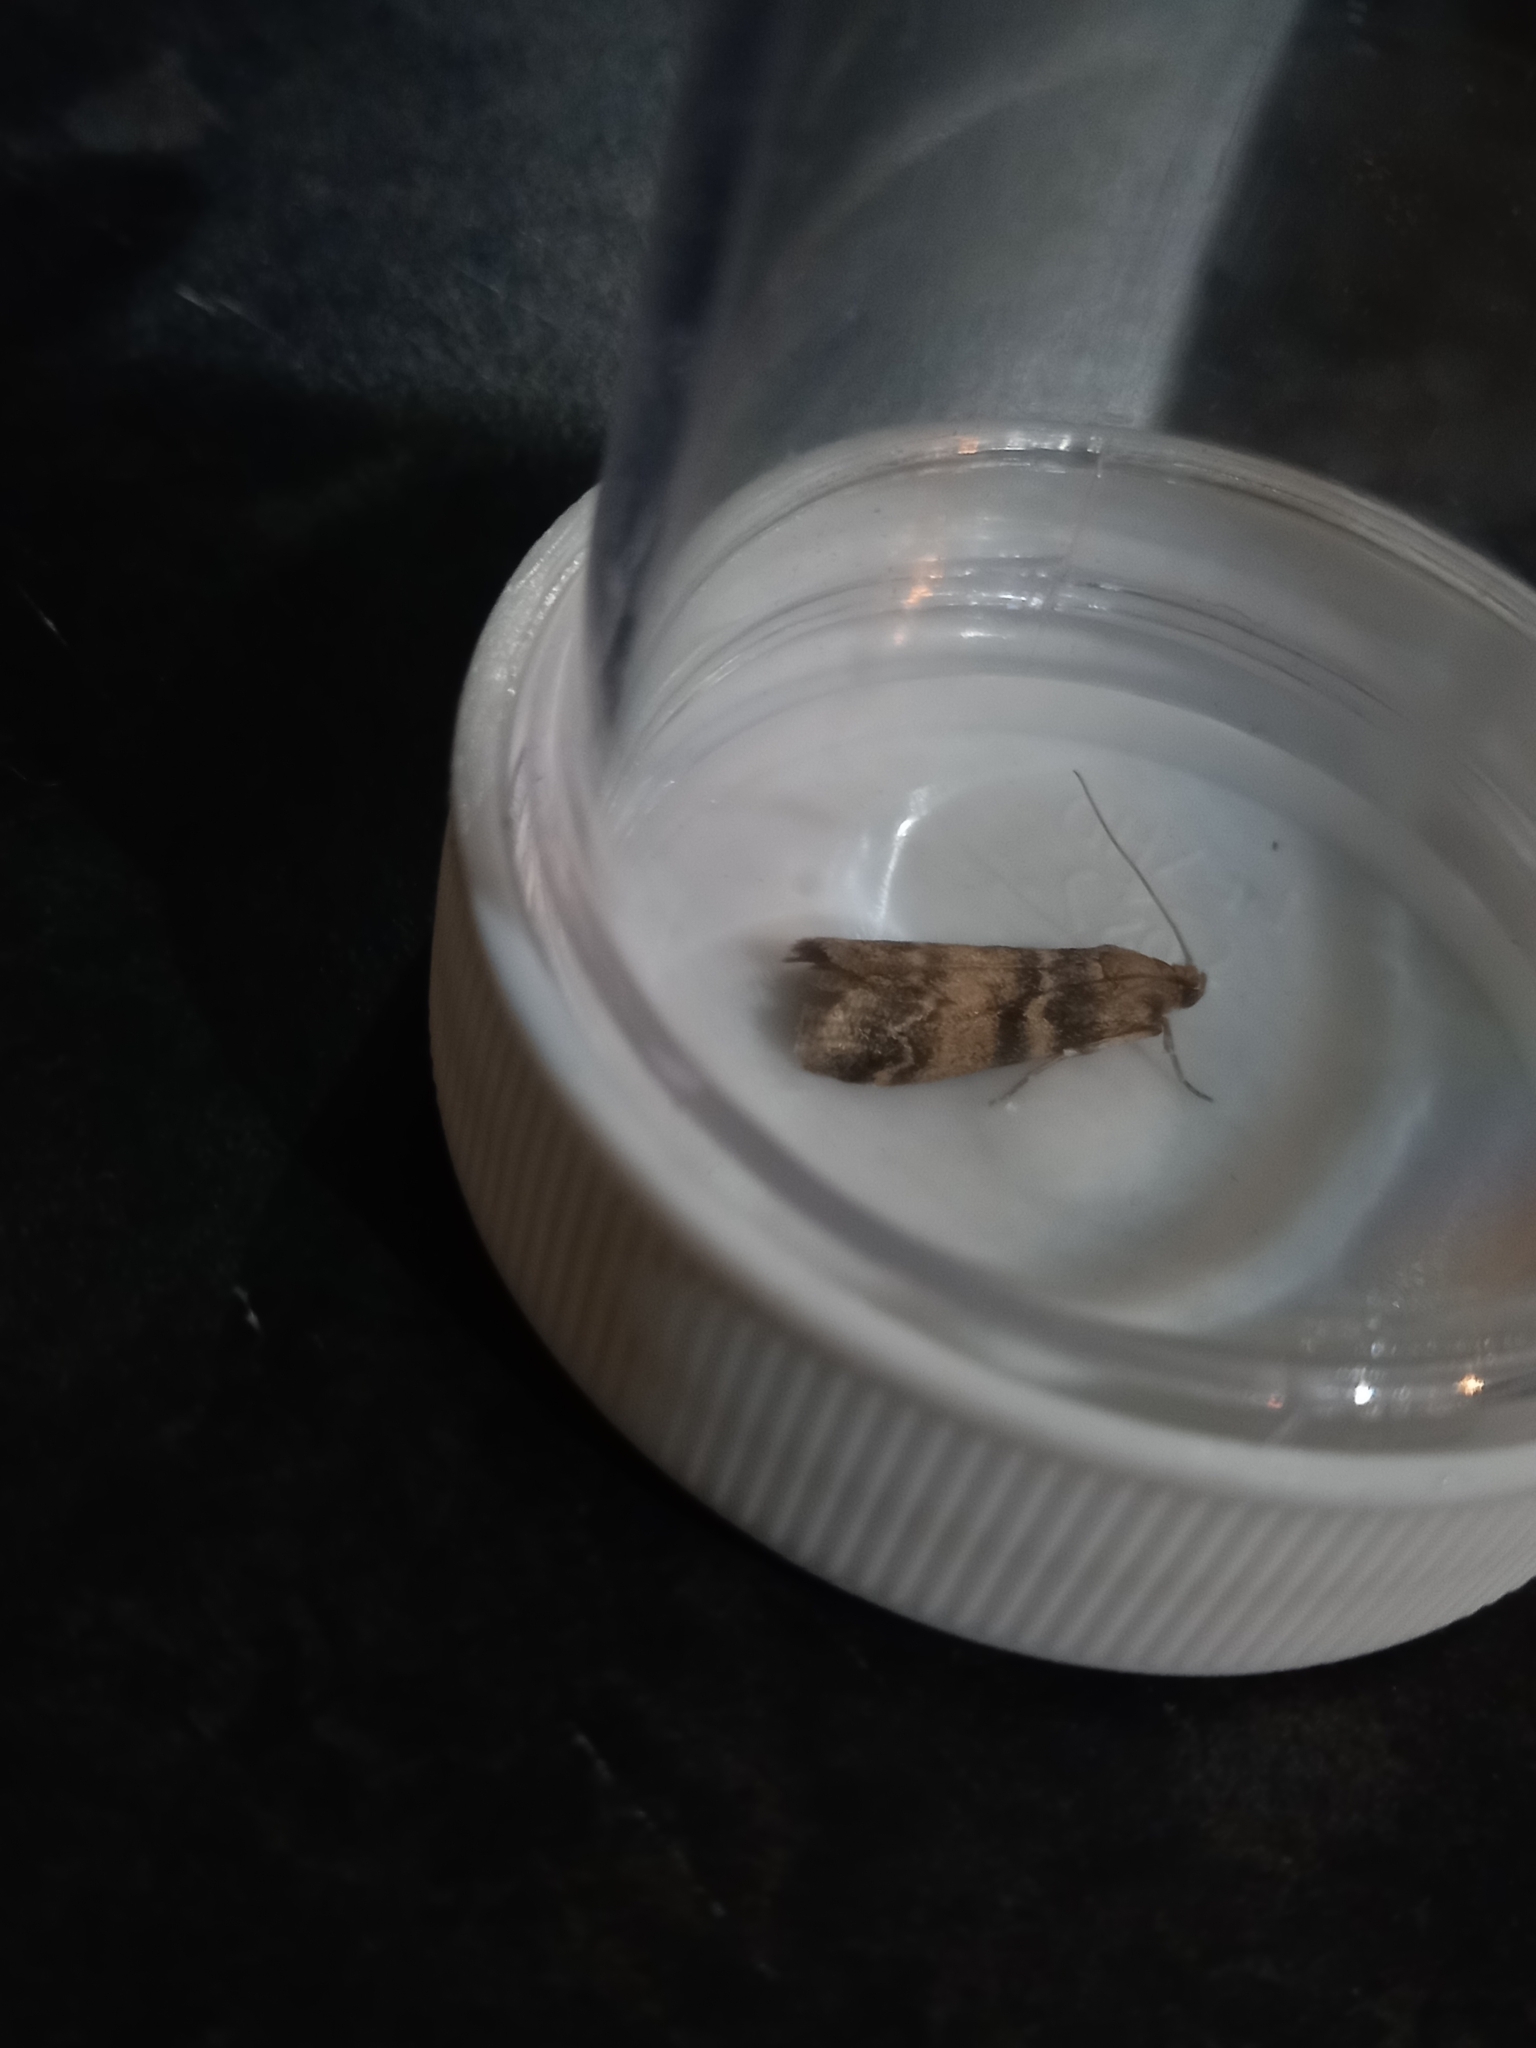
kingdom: Animalia
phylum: Arthropoda
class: Insecta
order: Lepidoptera
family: Pyralidae
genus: Euzophera
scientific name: Euzophera pinguis
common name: Ash-bark knot-horn
